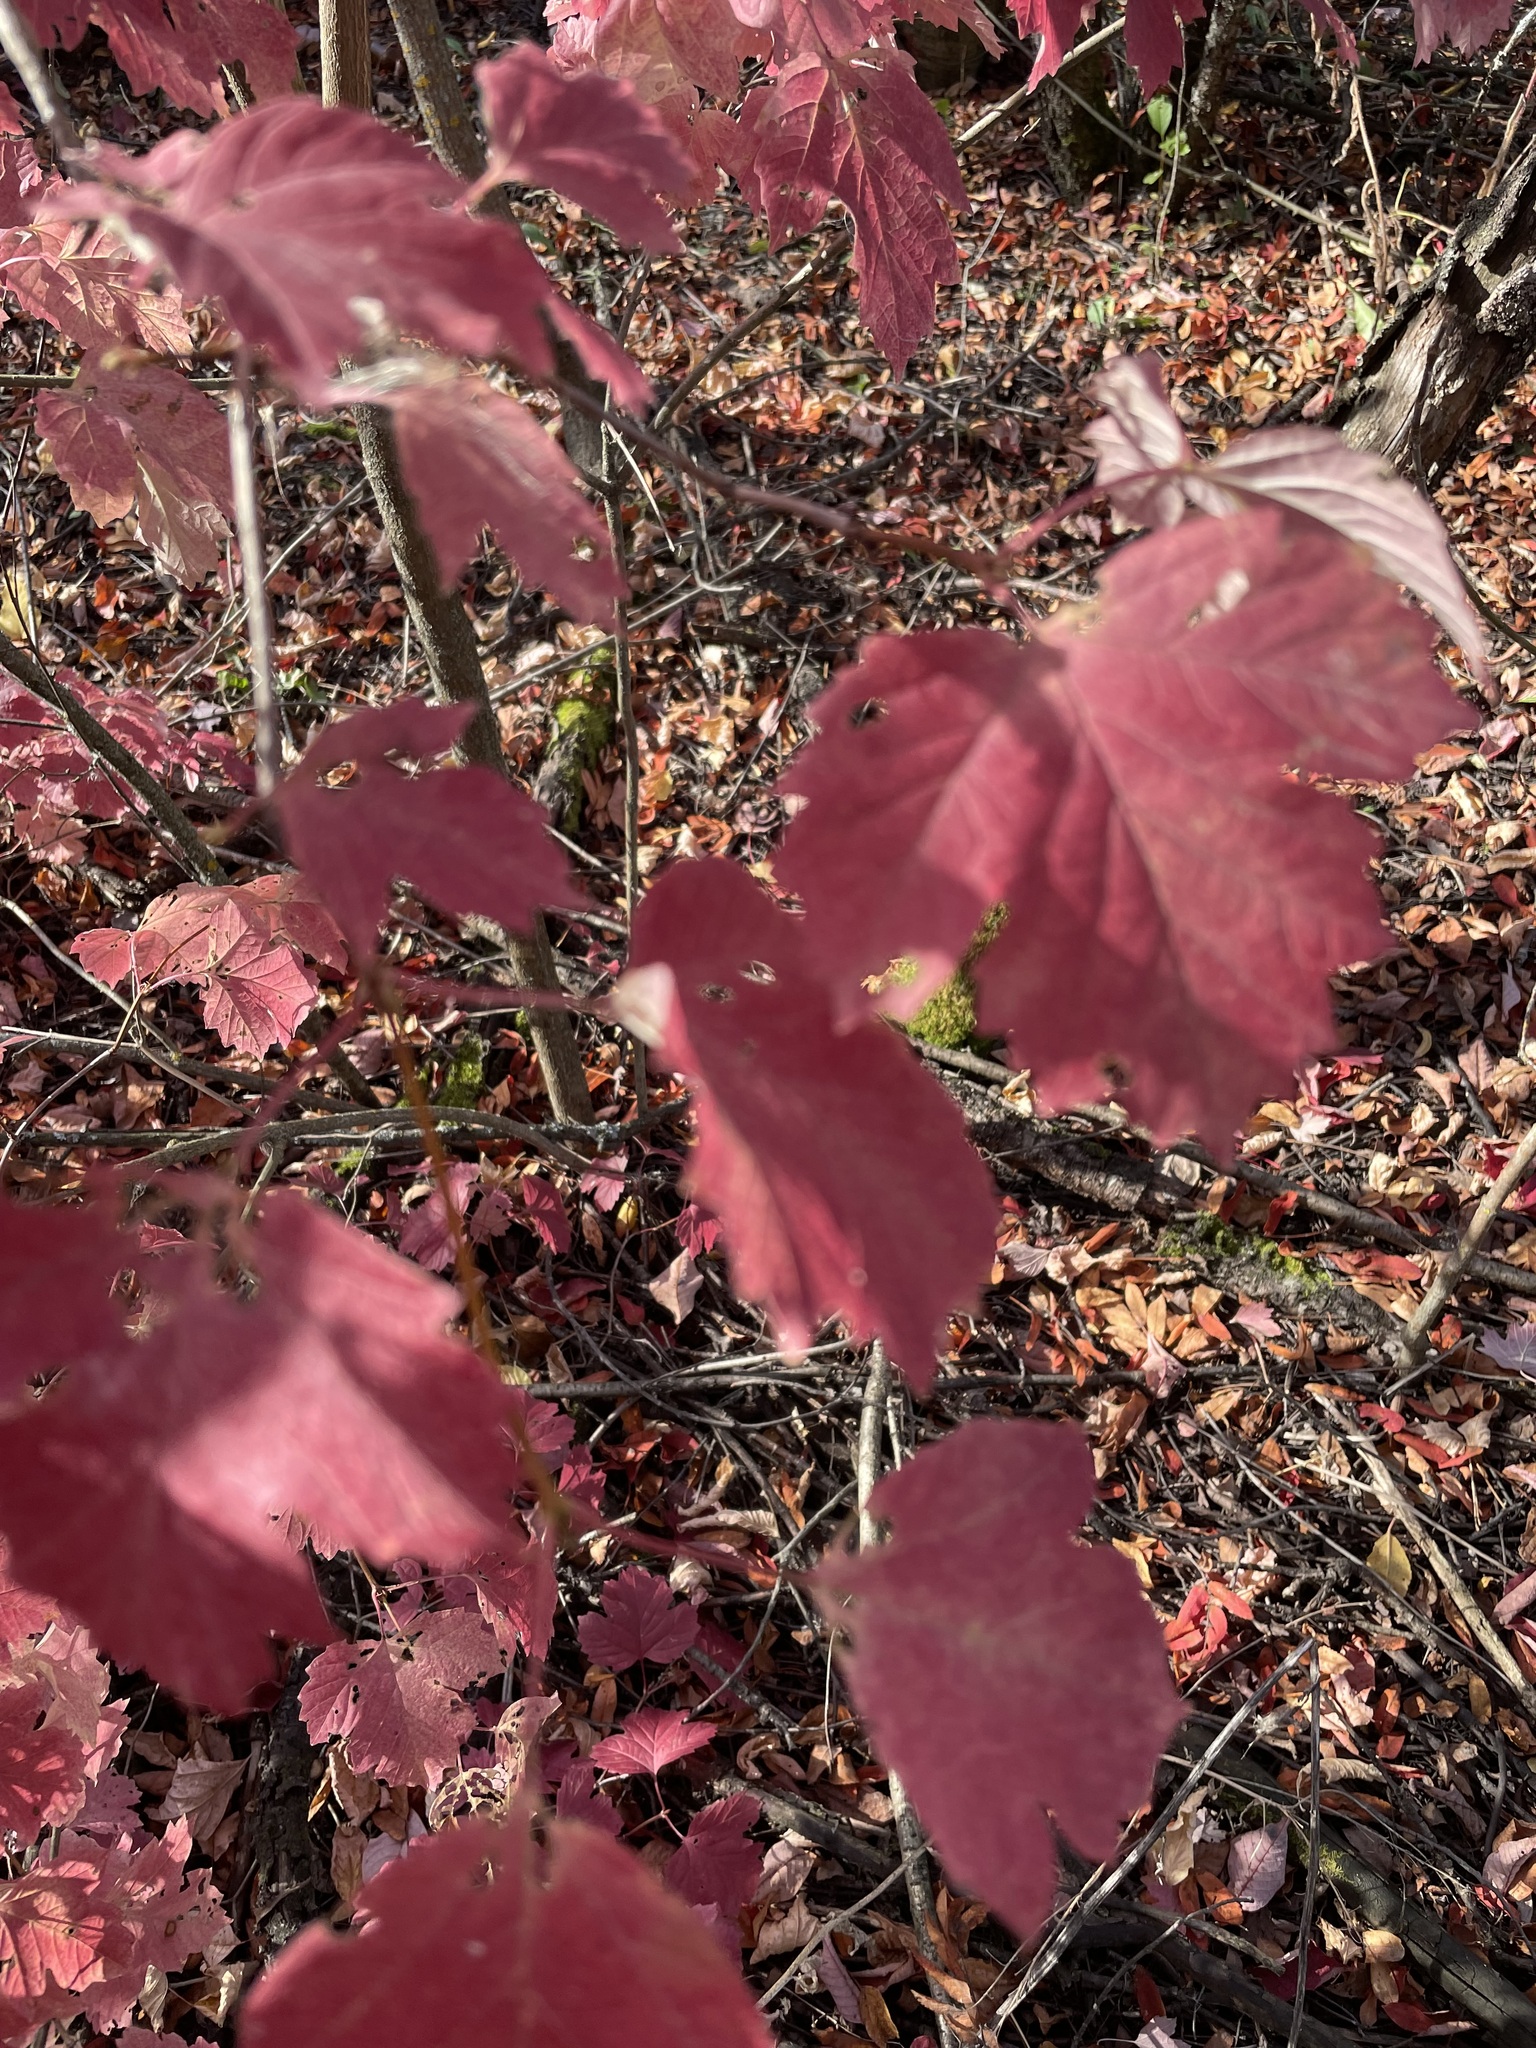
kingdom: Plantae
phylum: Tracheophyta
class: Magnoliopsida
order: Dipsacales
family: Viburnaceae
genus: Viburnum
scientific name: Viburnum opulus
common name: Guelder-rose
